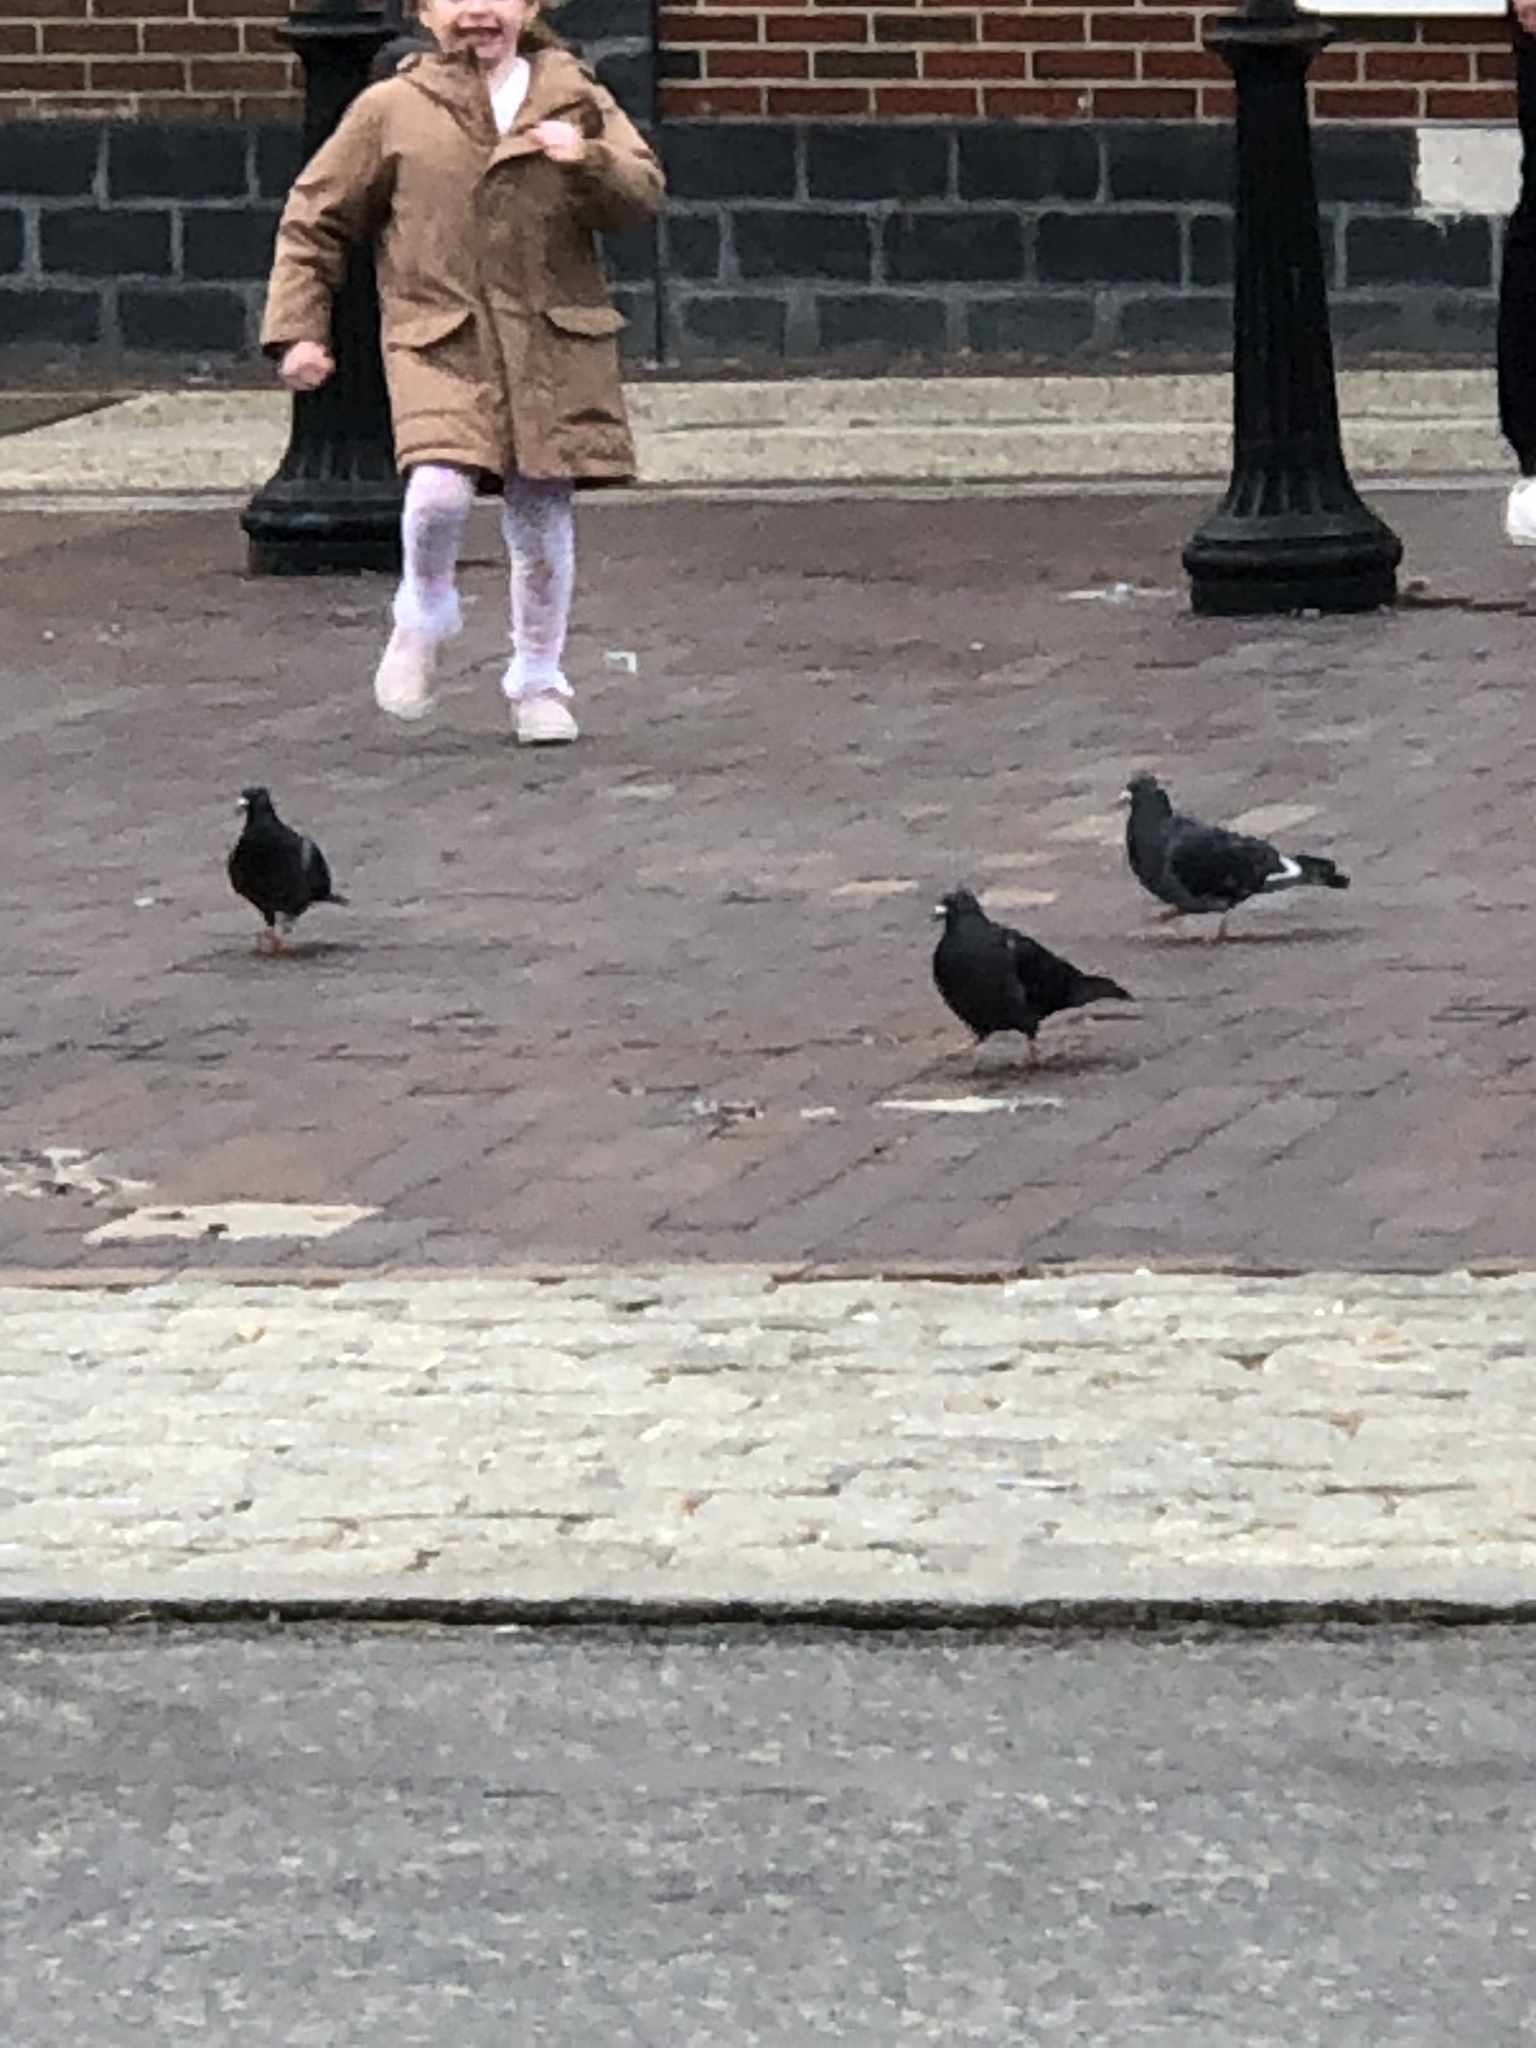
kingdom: Animalia
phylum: Chordata
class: Aves
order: Columbiformes
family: Columbidae
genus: Columba
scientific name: Columba livia
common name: Rock pigeon
